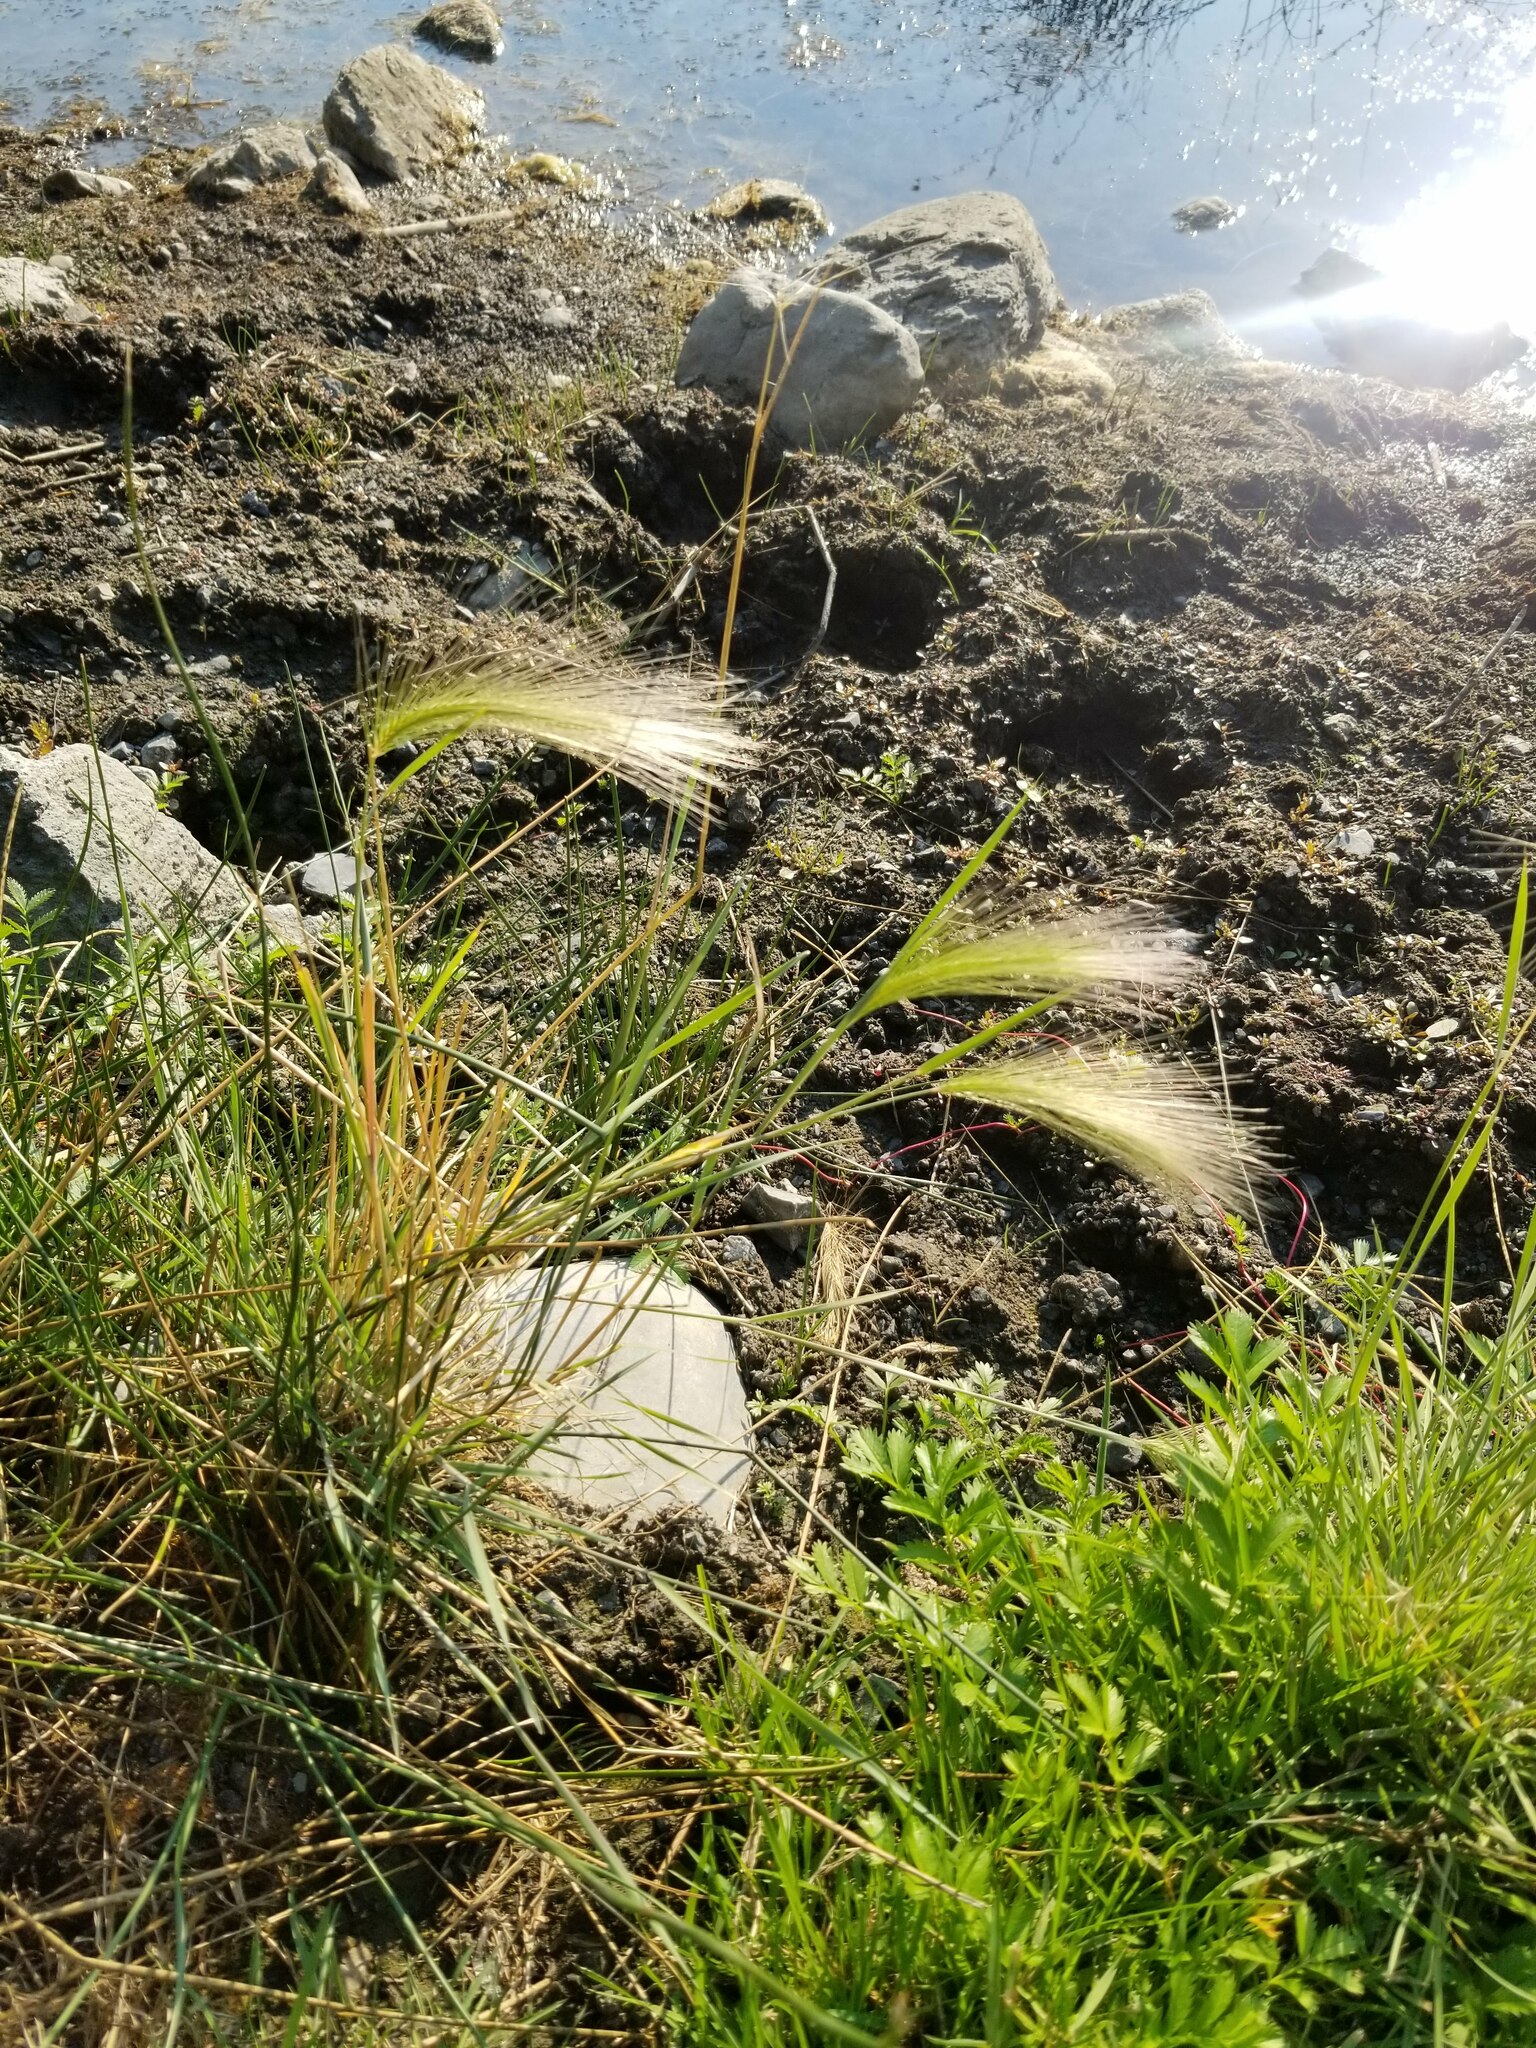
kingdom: Plantae
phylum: Tracheophyta
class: Liliopsida
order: Poales
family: Poaceae
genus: Hordeum
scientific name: Hordeum jubatum
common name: Foxtail barley
